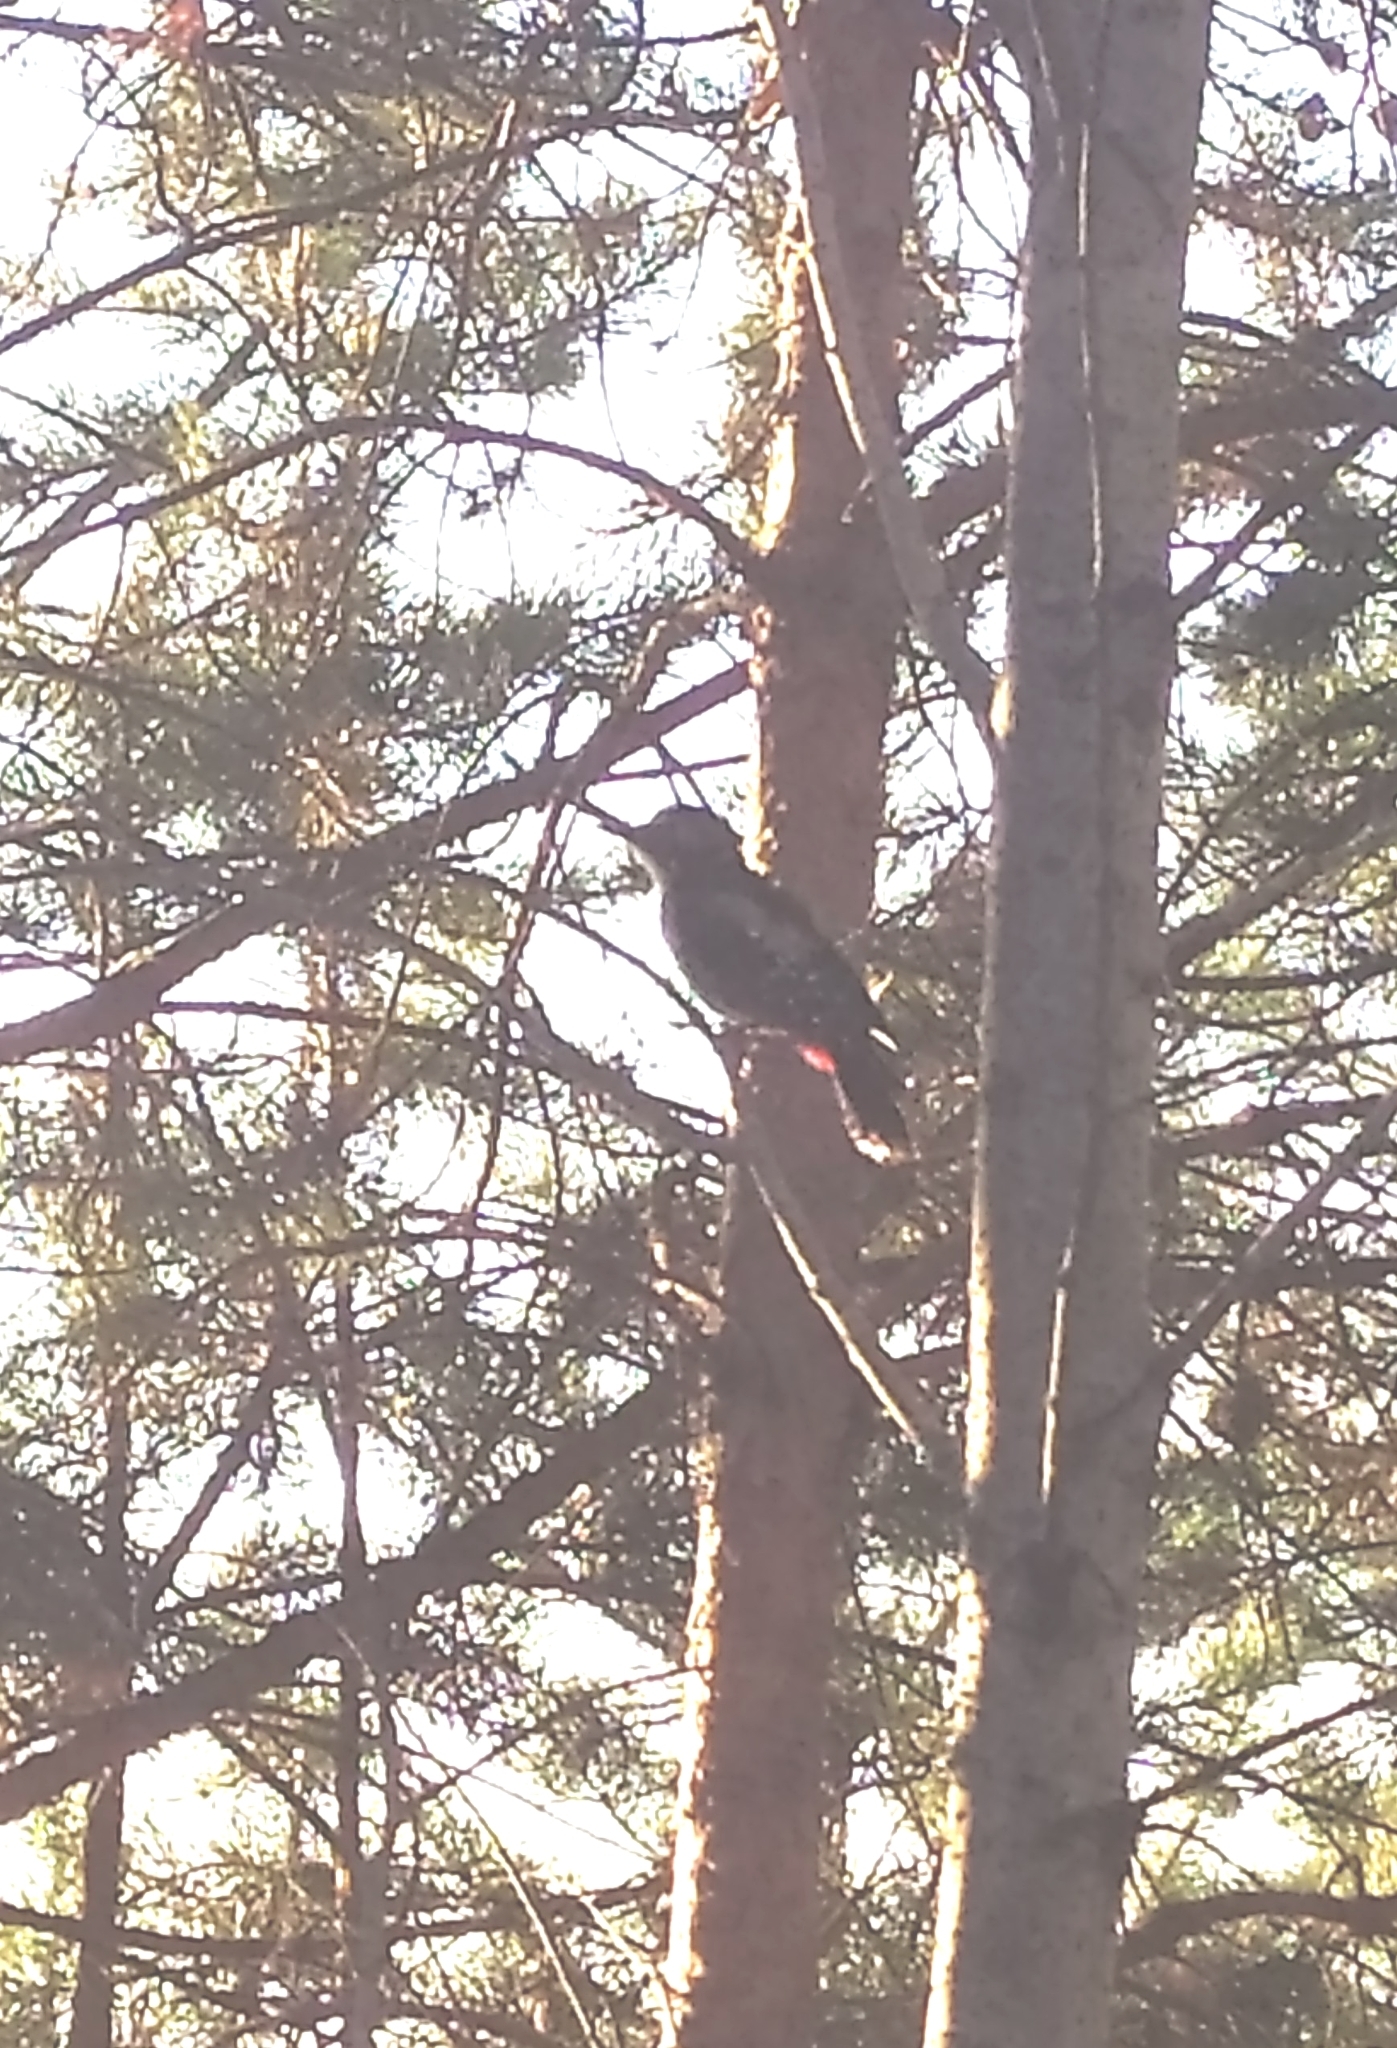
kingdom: Animalia
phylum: Chordata
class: Aves
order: Piciformes
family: Picidae
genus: Dendrocopos
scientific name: Dendrocopos major
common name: Great spotted woodpecker
